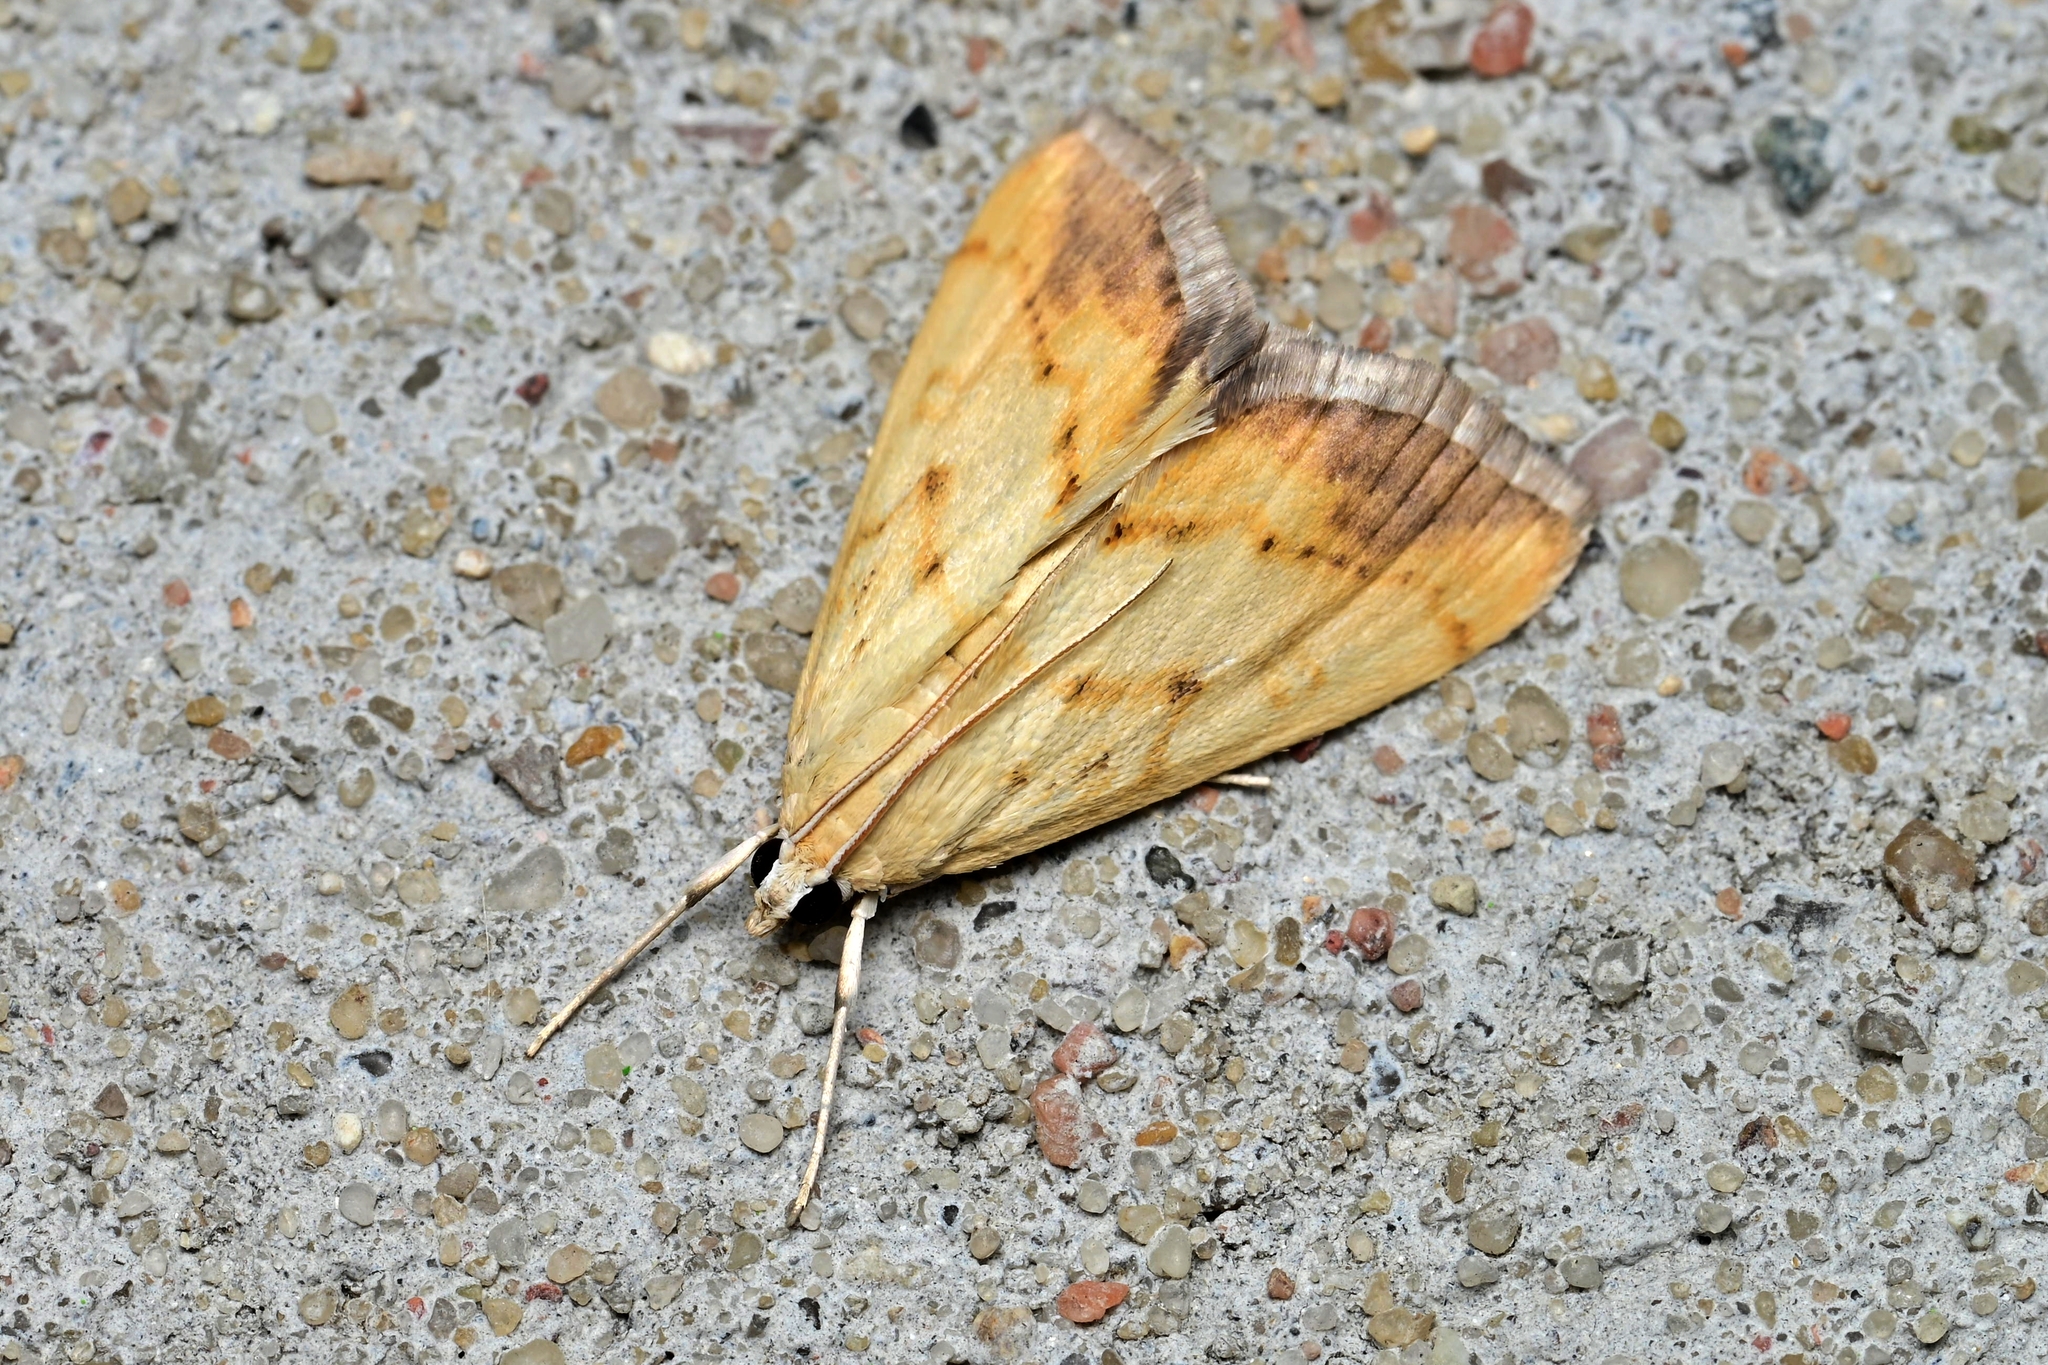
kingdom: Animalia
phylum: Arthropoda
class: Insecta
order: Lepidoptera
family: Crambidae
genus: Evergestis
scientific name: Evergestis extimalis
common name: Marbled yellow pearl
